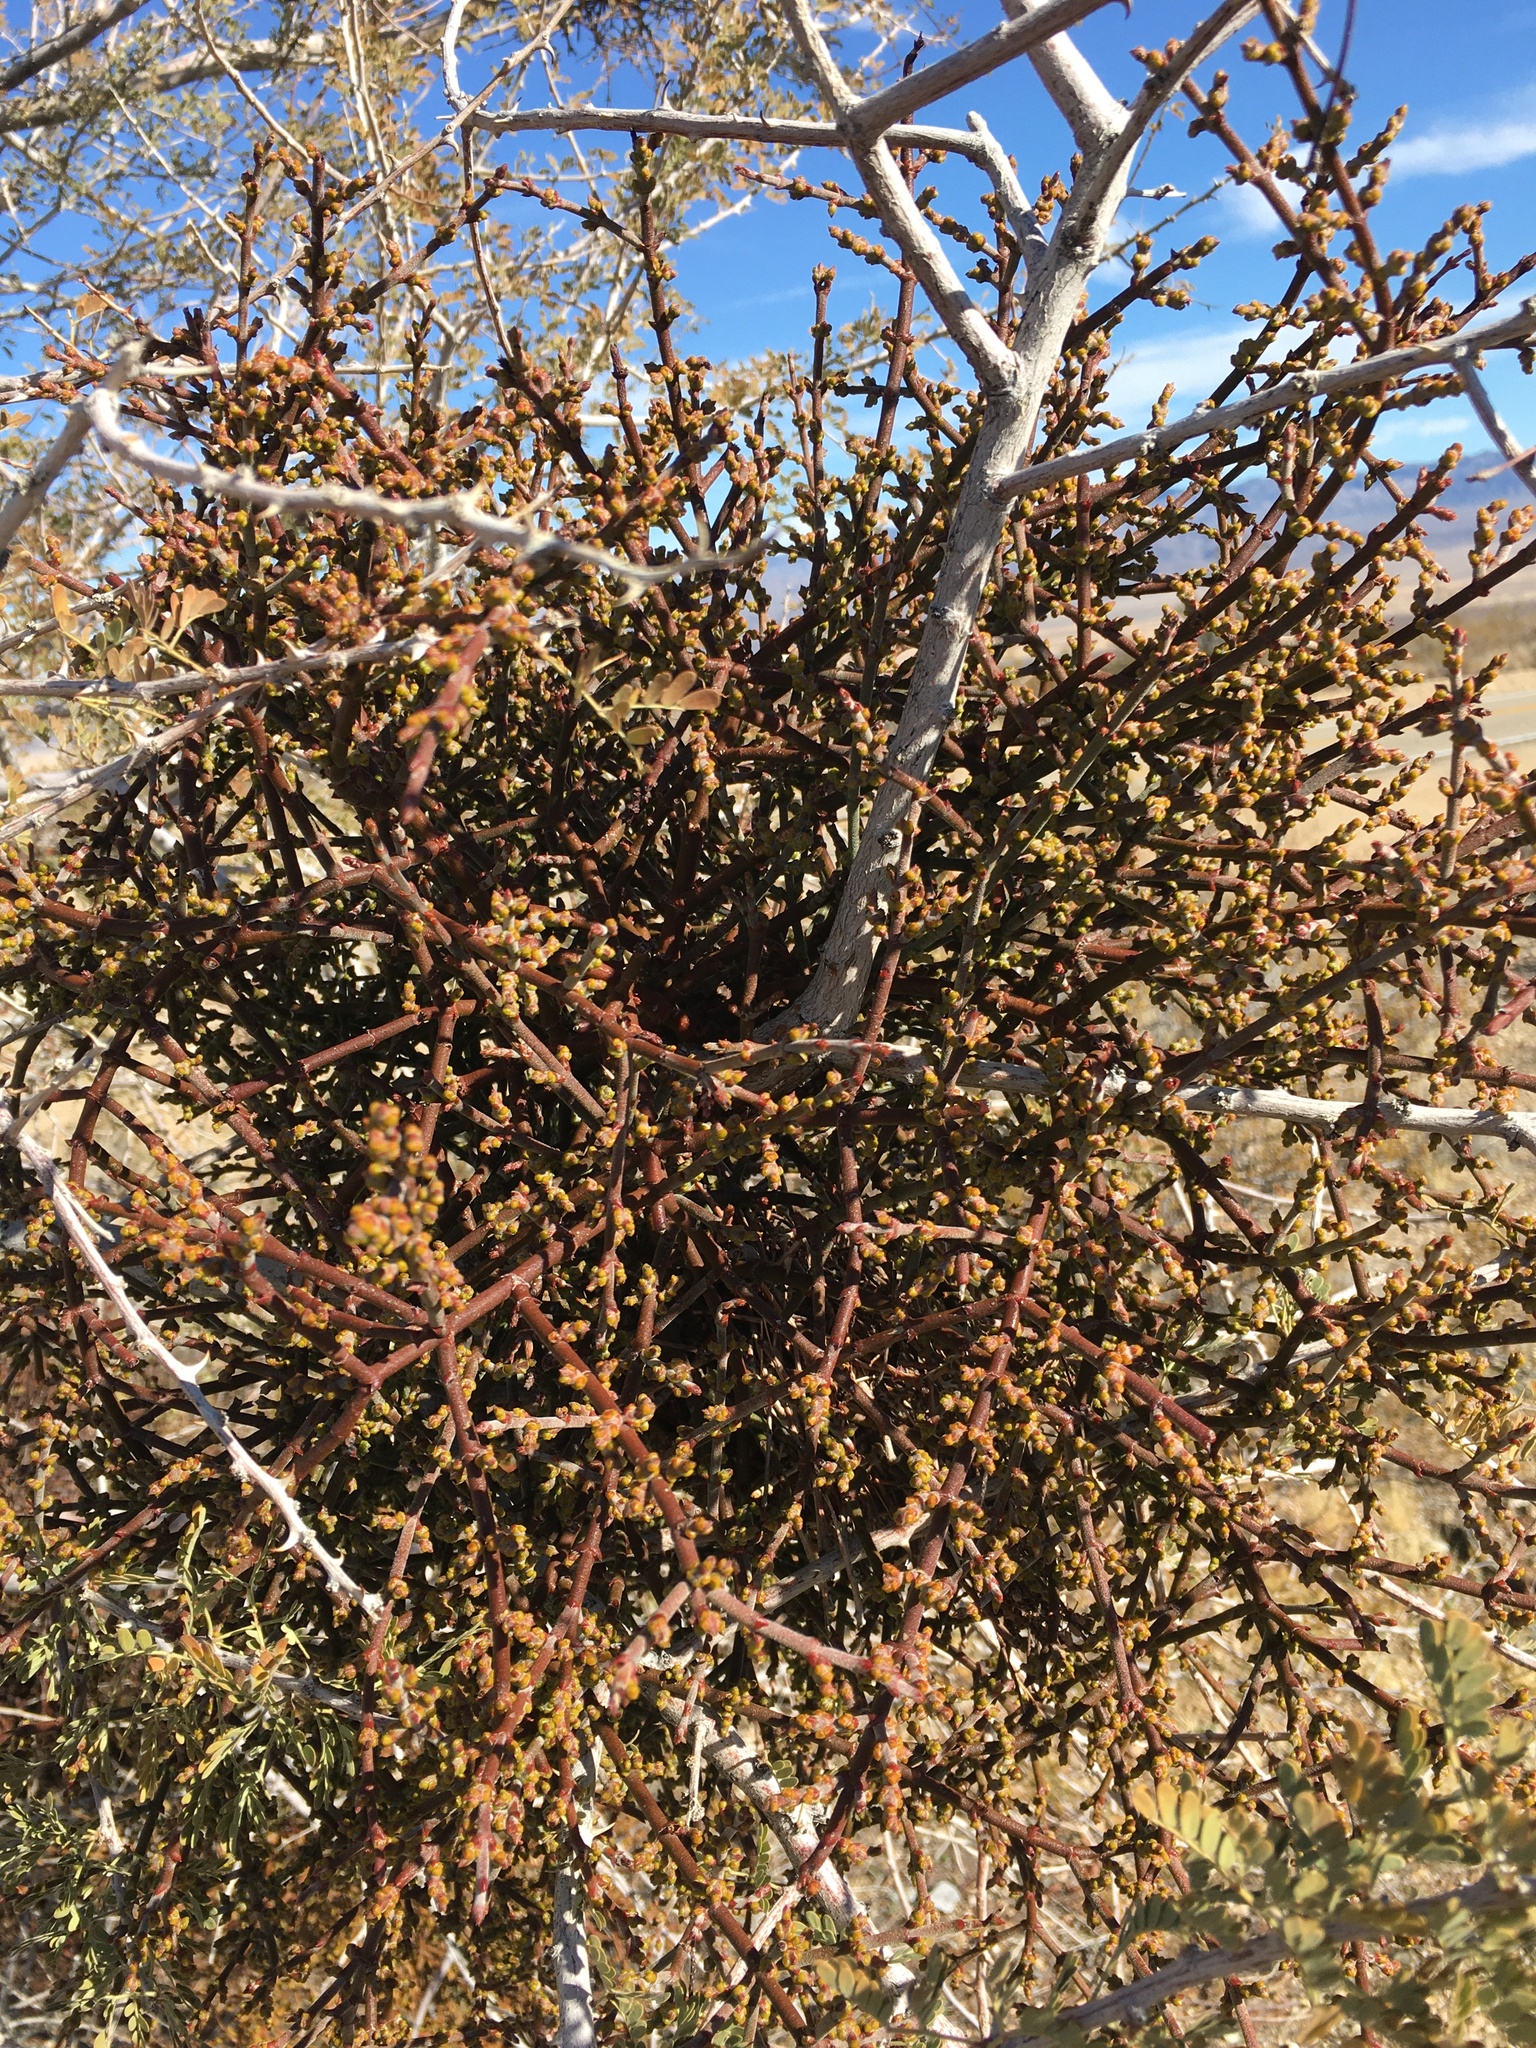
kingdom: Plantae
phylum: Tracheophyta
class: Magnoliopsida
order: Santalales
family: Viscaceae
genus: Phoradendron
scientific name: Phoradendron californicum
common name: Acacia mistletoe
